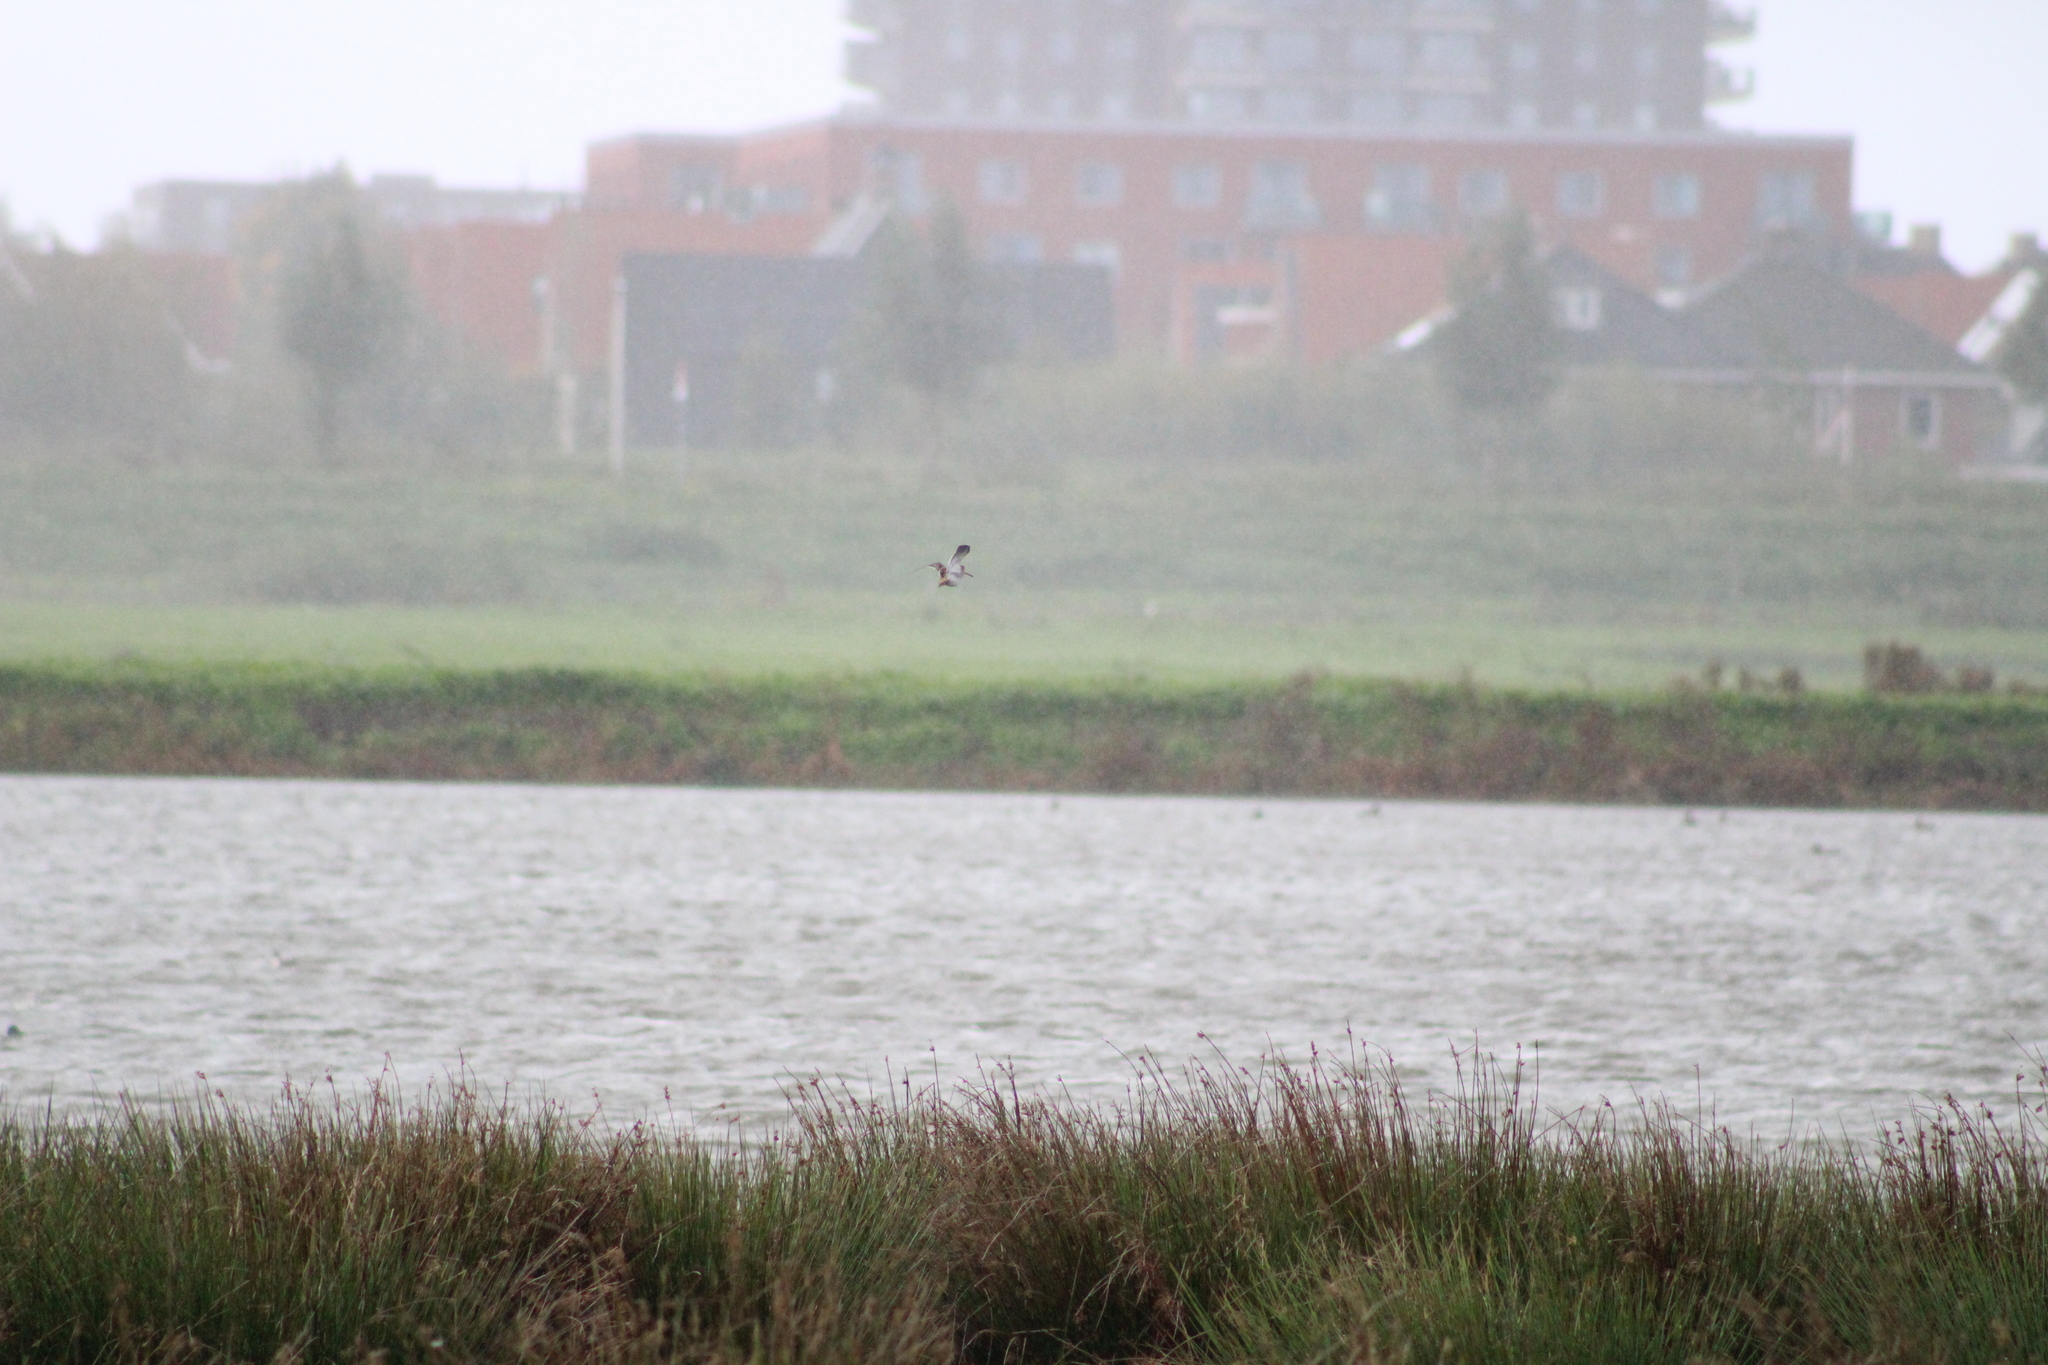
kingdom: Animalia
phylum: Chordata
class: Aves
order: Charadriiformes
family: Scolopacidae
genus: Gallinago
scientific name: Gallinago gallinago
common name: Common snipe
